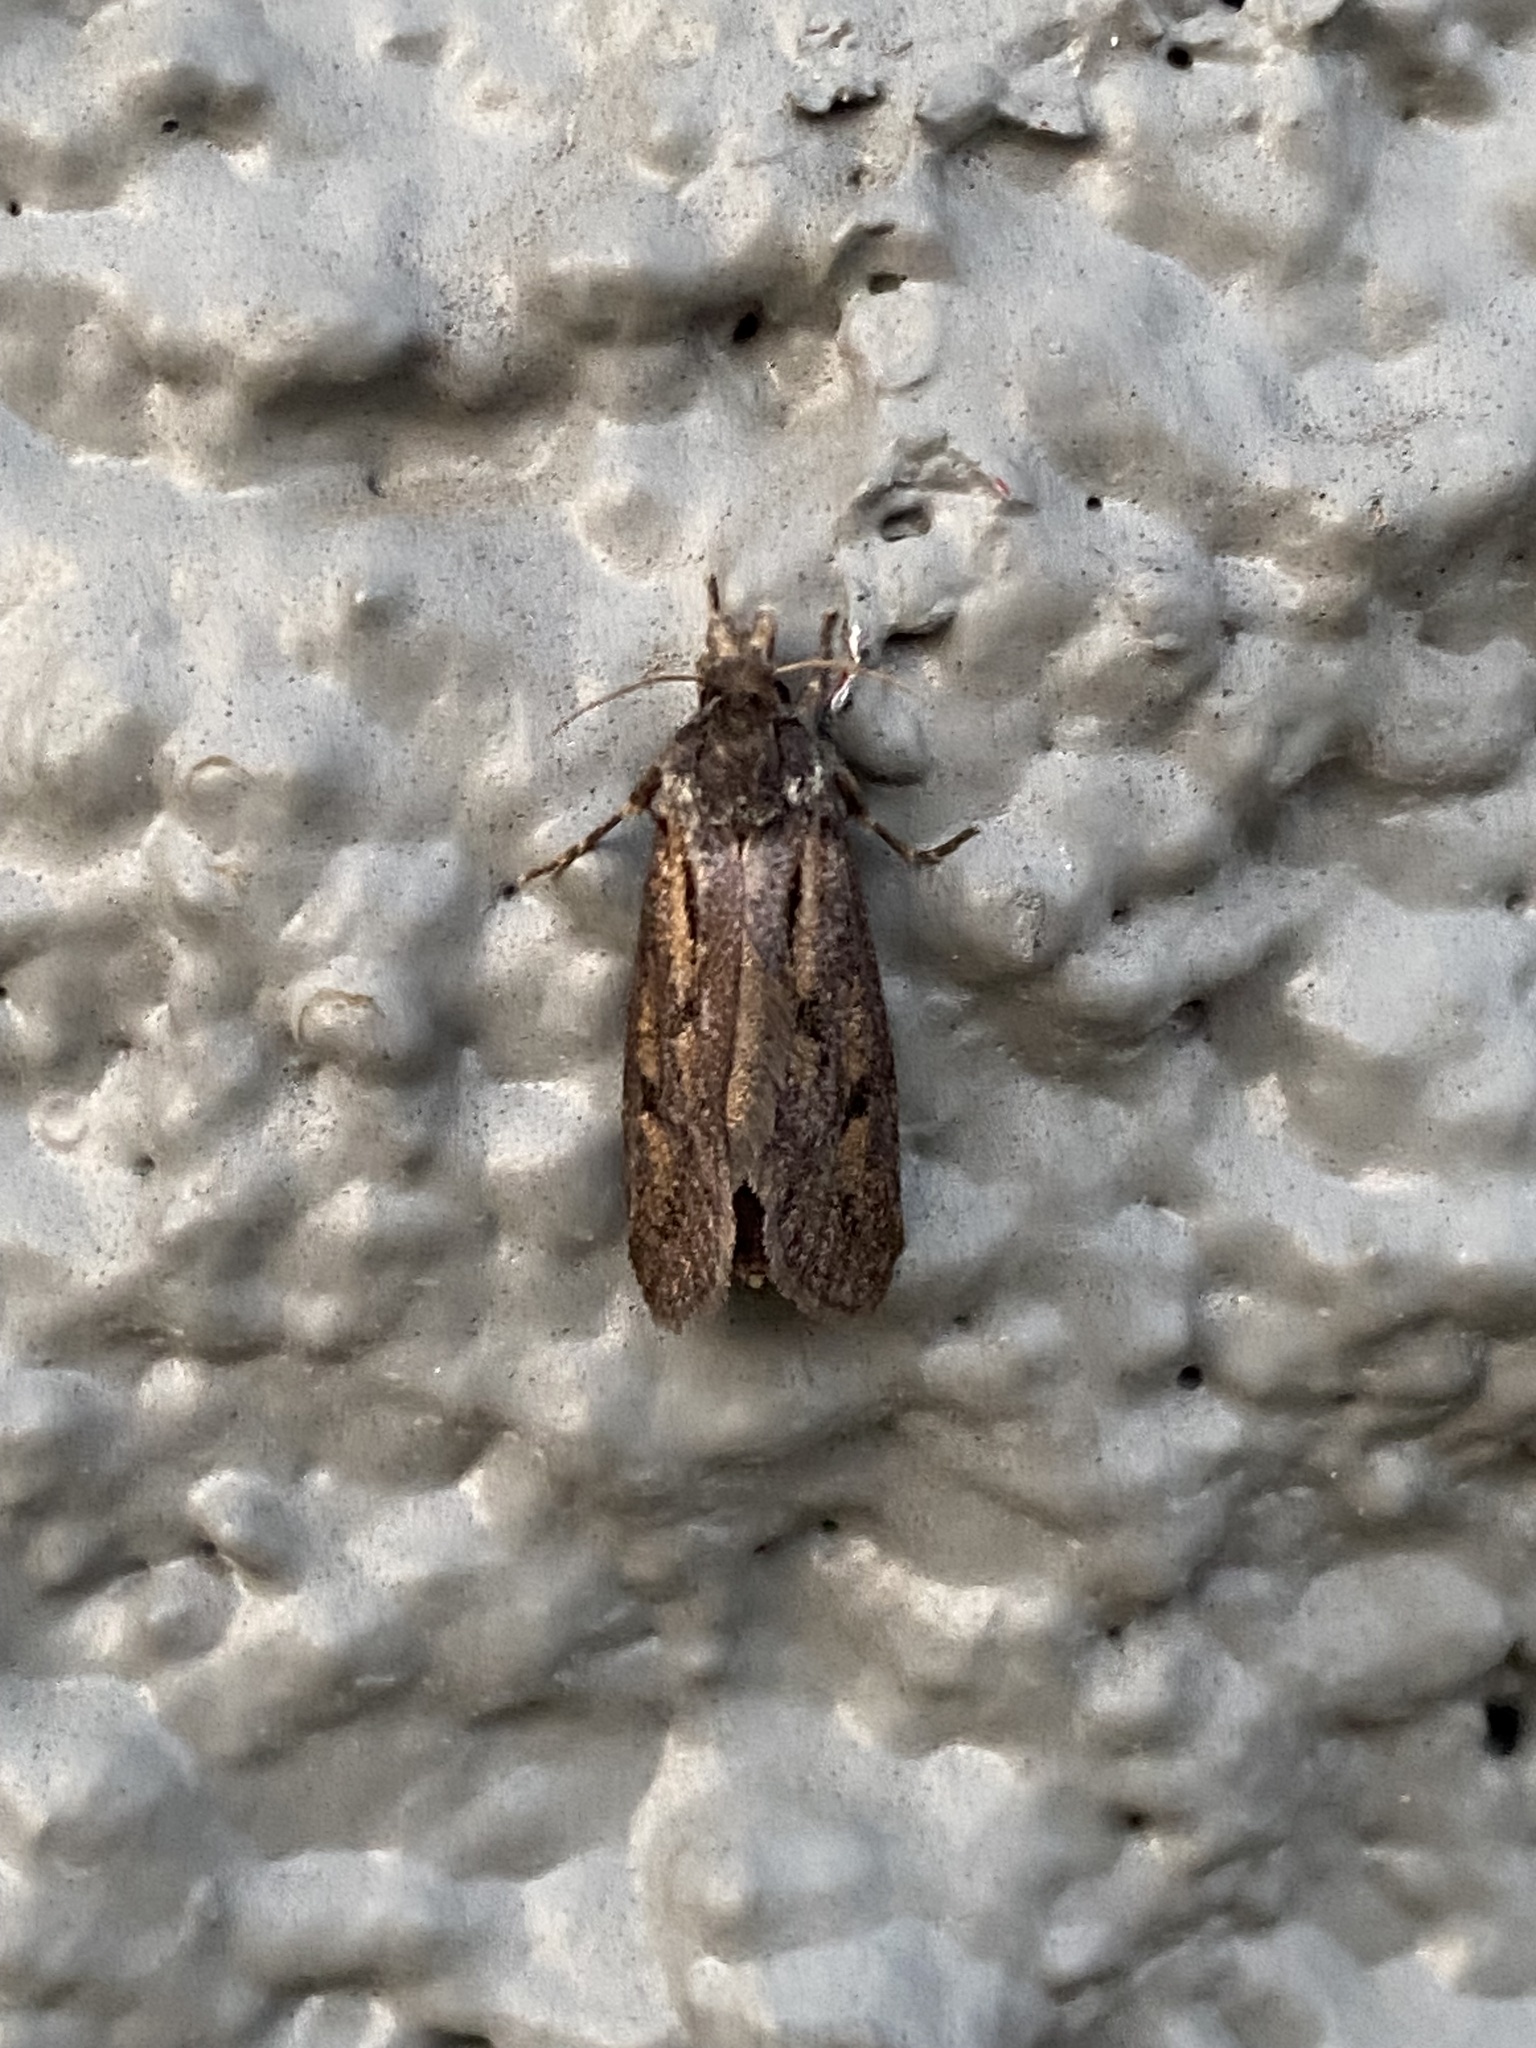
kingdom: Animalia
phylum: Arthropoda
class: Insecta
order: Lepidoptera
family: Tineidae
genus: Acrolophus
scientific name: Acrolophus popeanella
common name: Clemens' grass tubeworm moth
